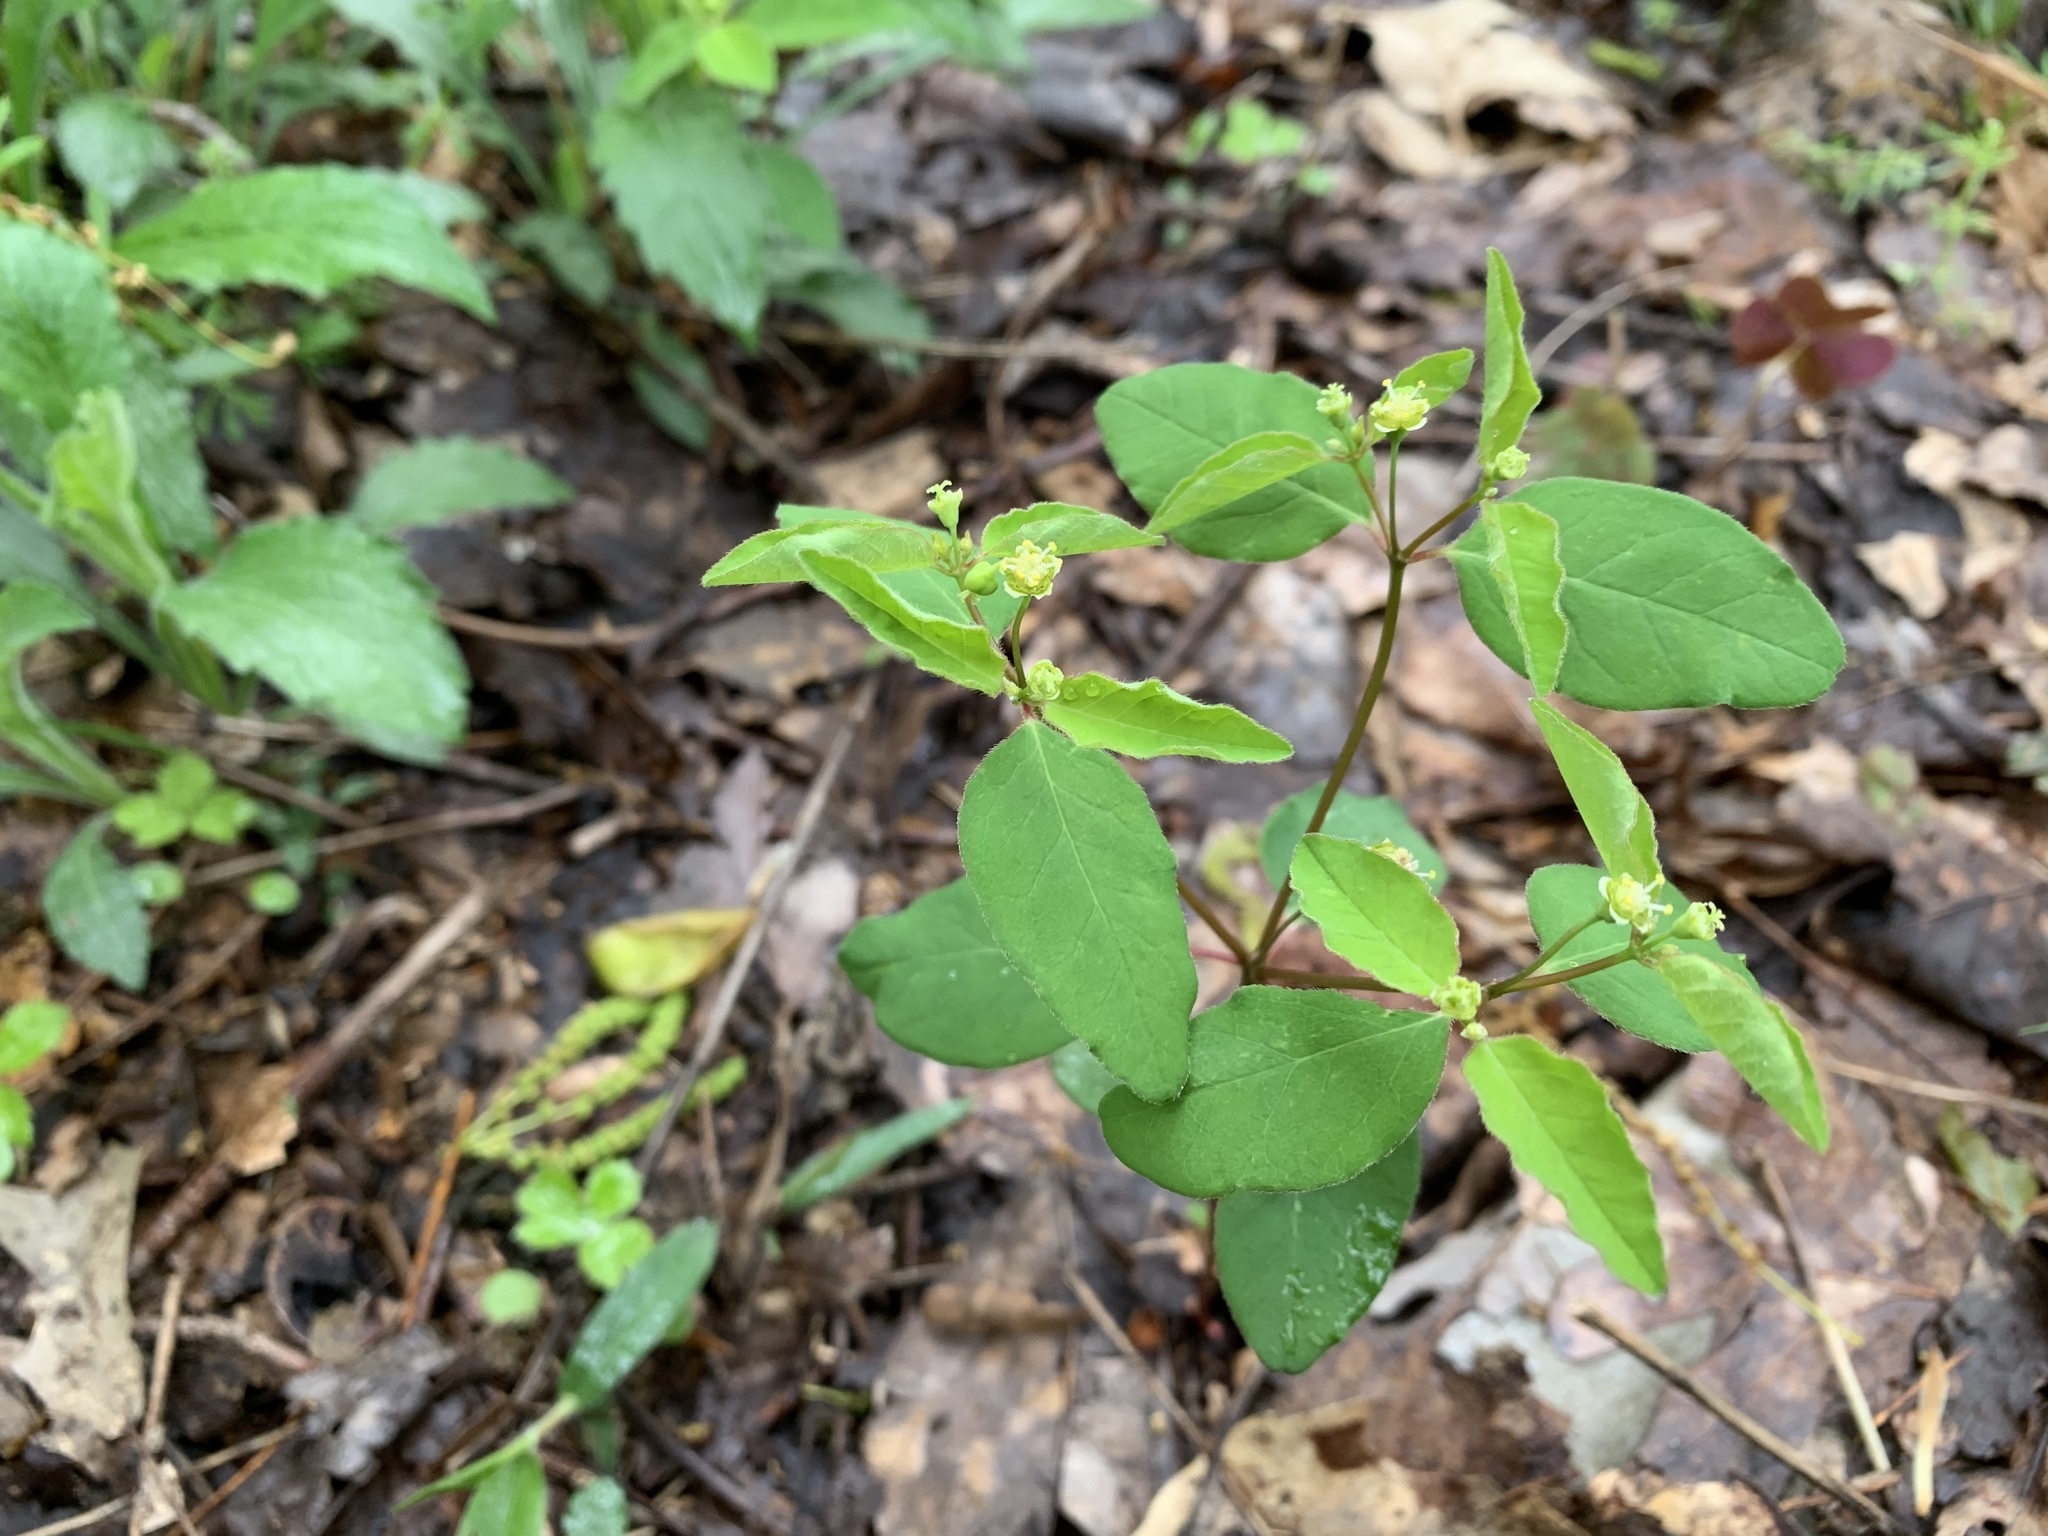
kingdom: Plantae
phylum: Tracheophyta
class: Magnoliopsida
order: Malpighiales
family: Euphorbiaceae
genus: Euphorbia
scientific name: Euphorbia mercurialina
